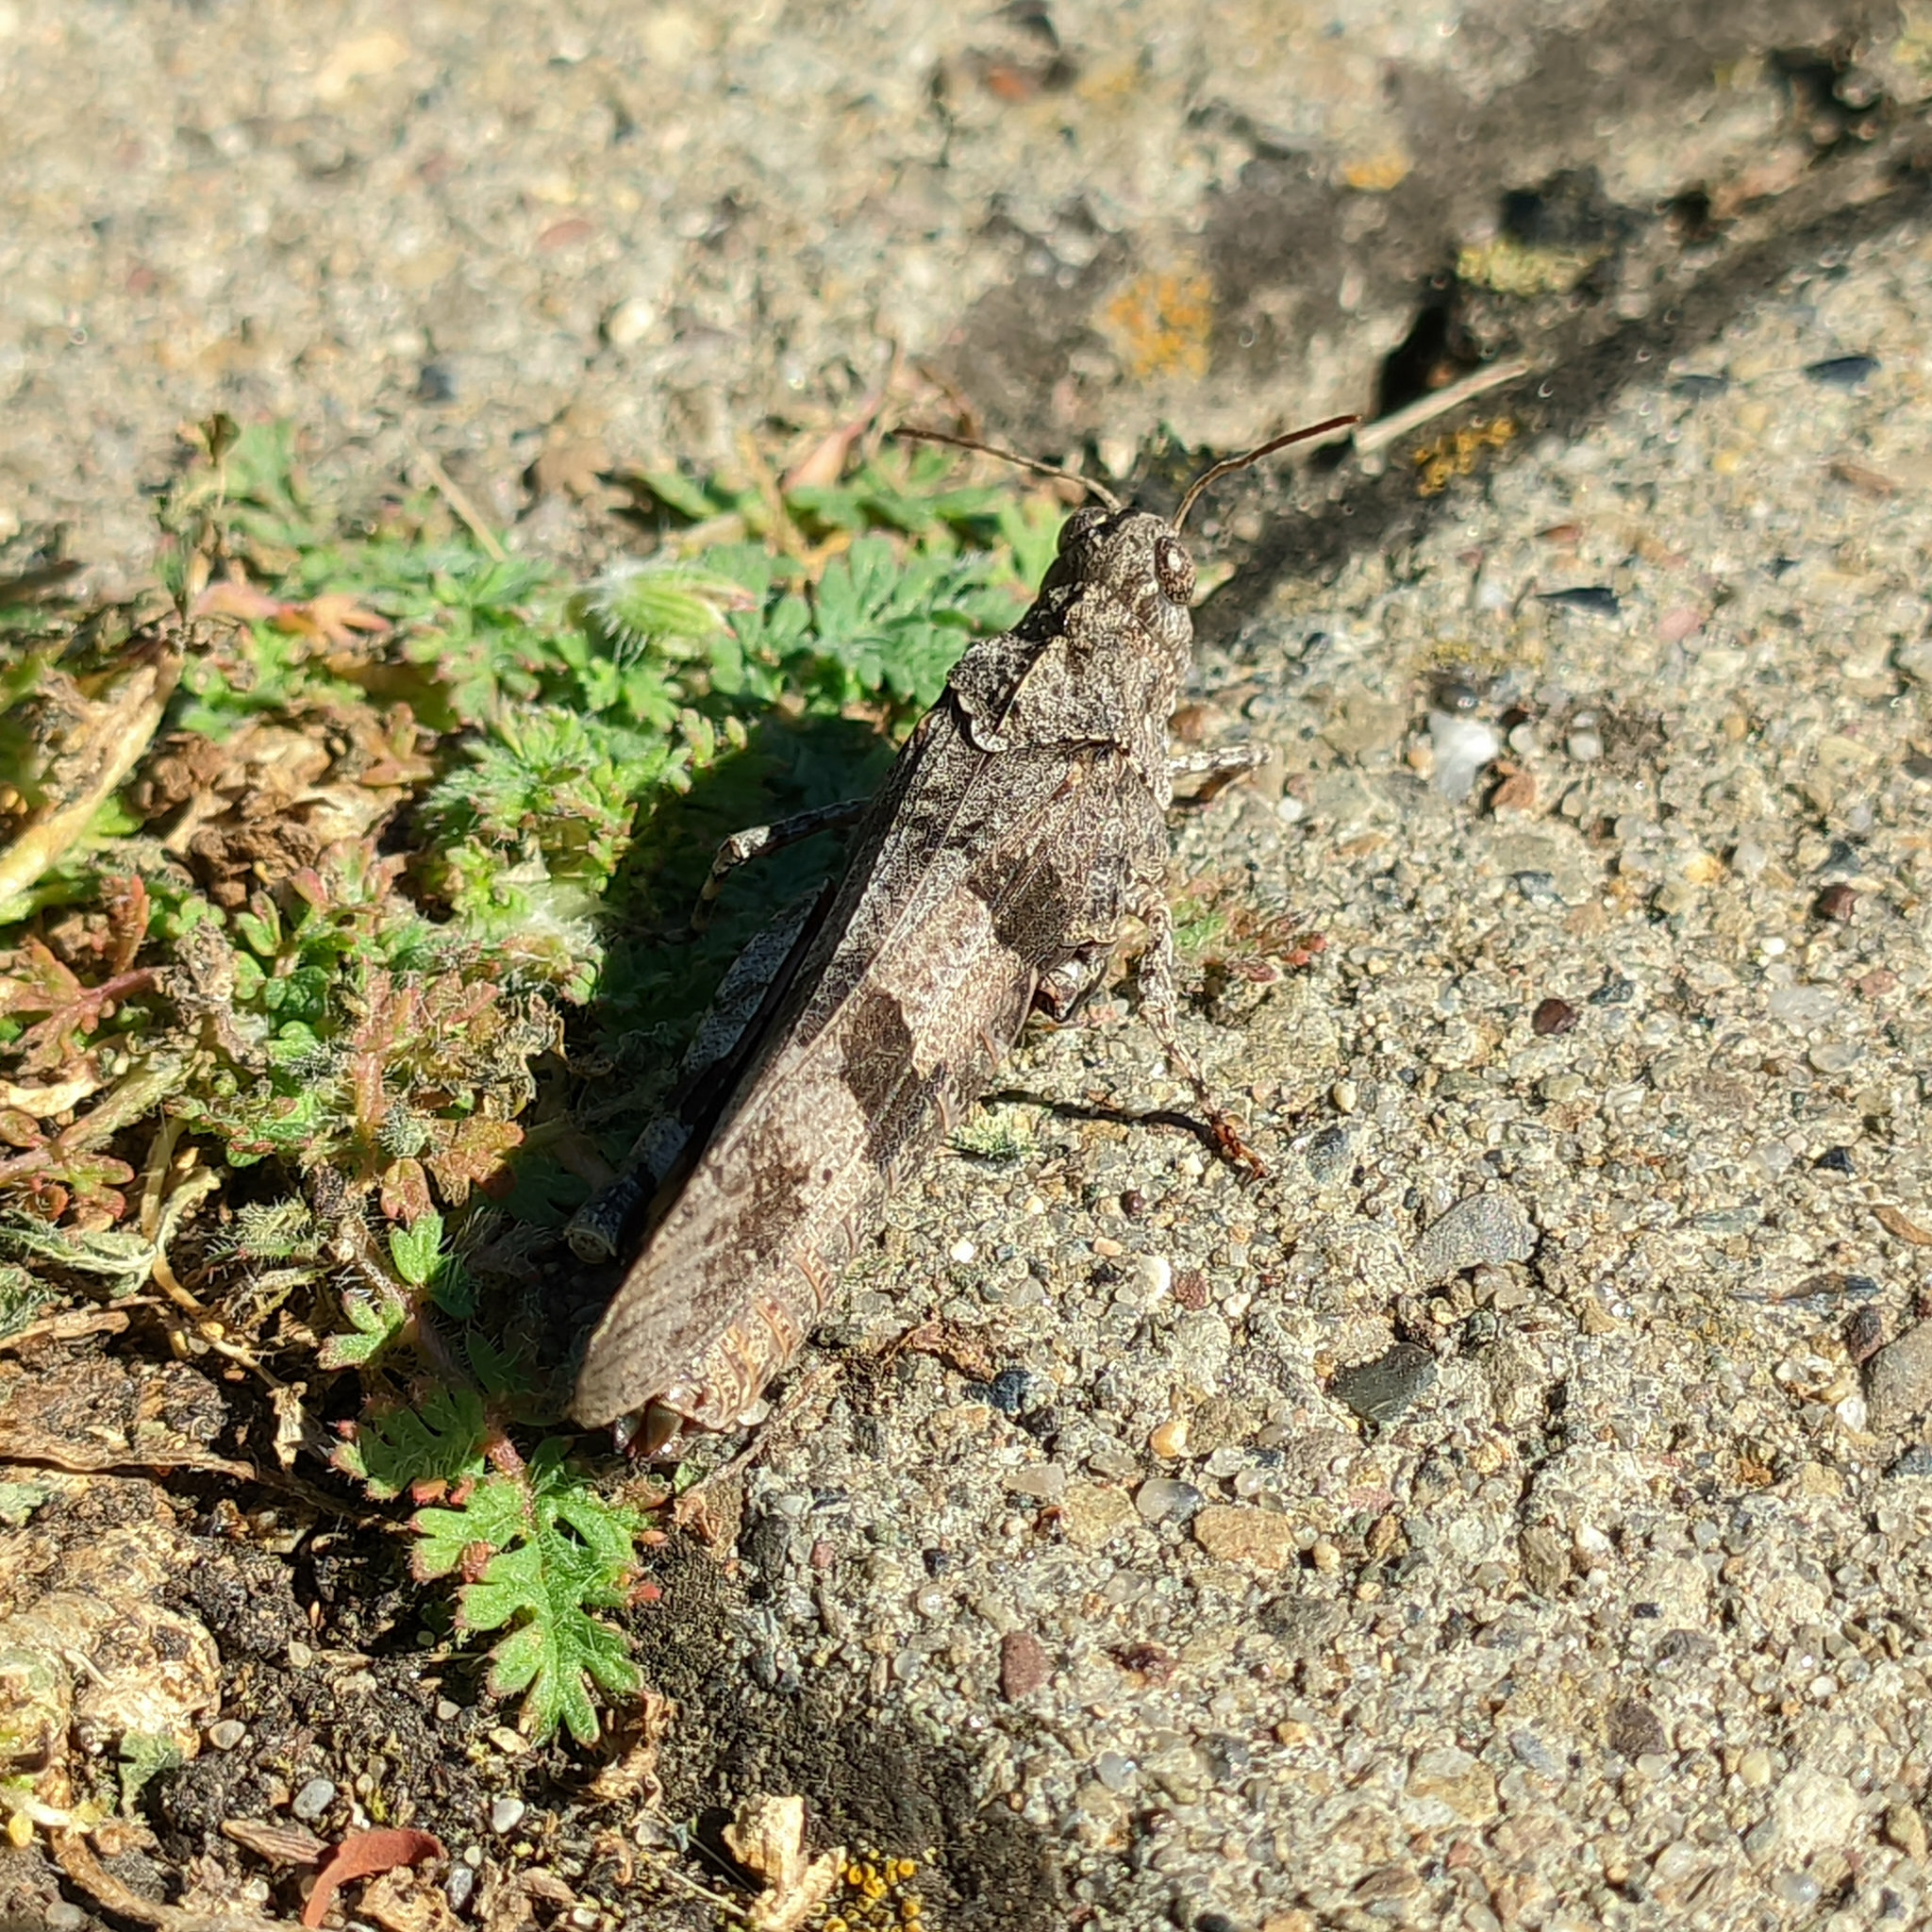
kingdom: Animalia
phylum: Arthropoda
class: Insecta
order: Orthoptera
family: Acrididae
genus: Oedipoda
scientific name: Oedipoda caerulescens
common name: Blue-winged grasshopper
